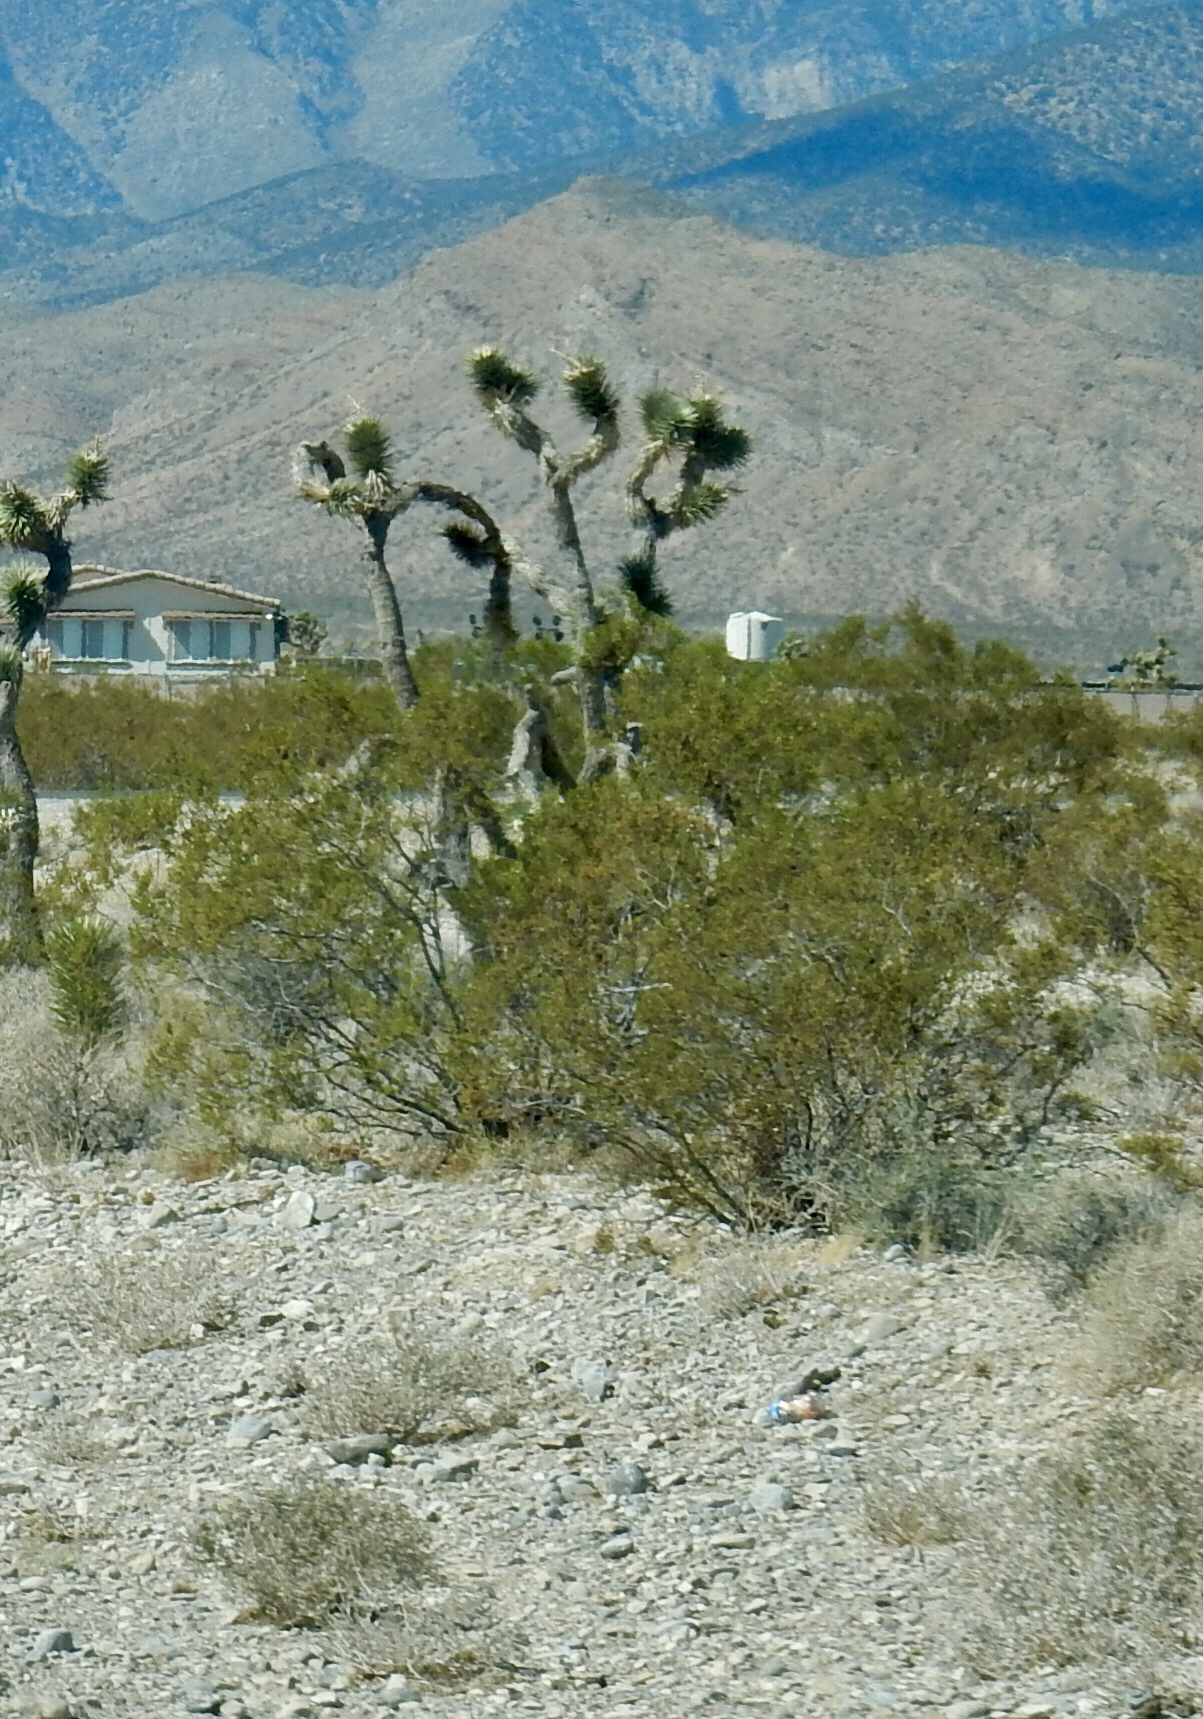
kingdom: Plantae
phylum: Tracheophyta
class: Magnoliopsida
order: Zygophyllales
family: Zygophyllaceae
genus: Larrea
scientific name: Larrea tridentata
